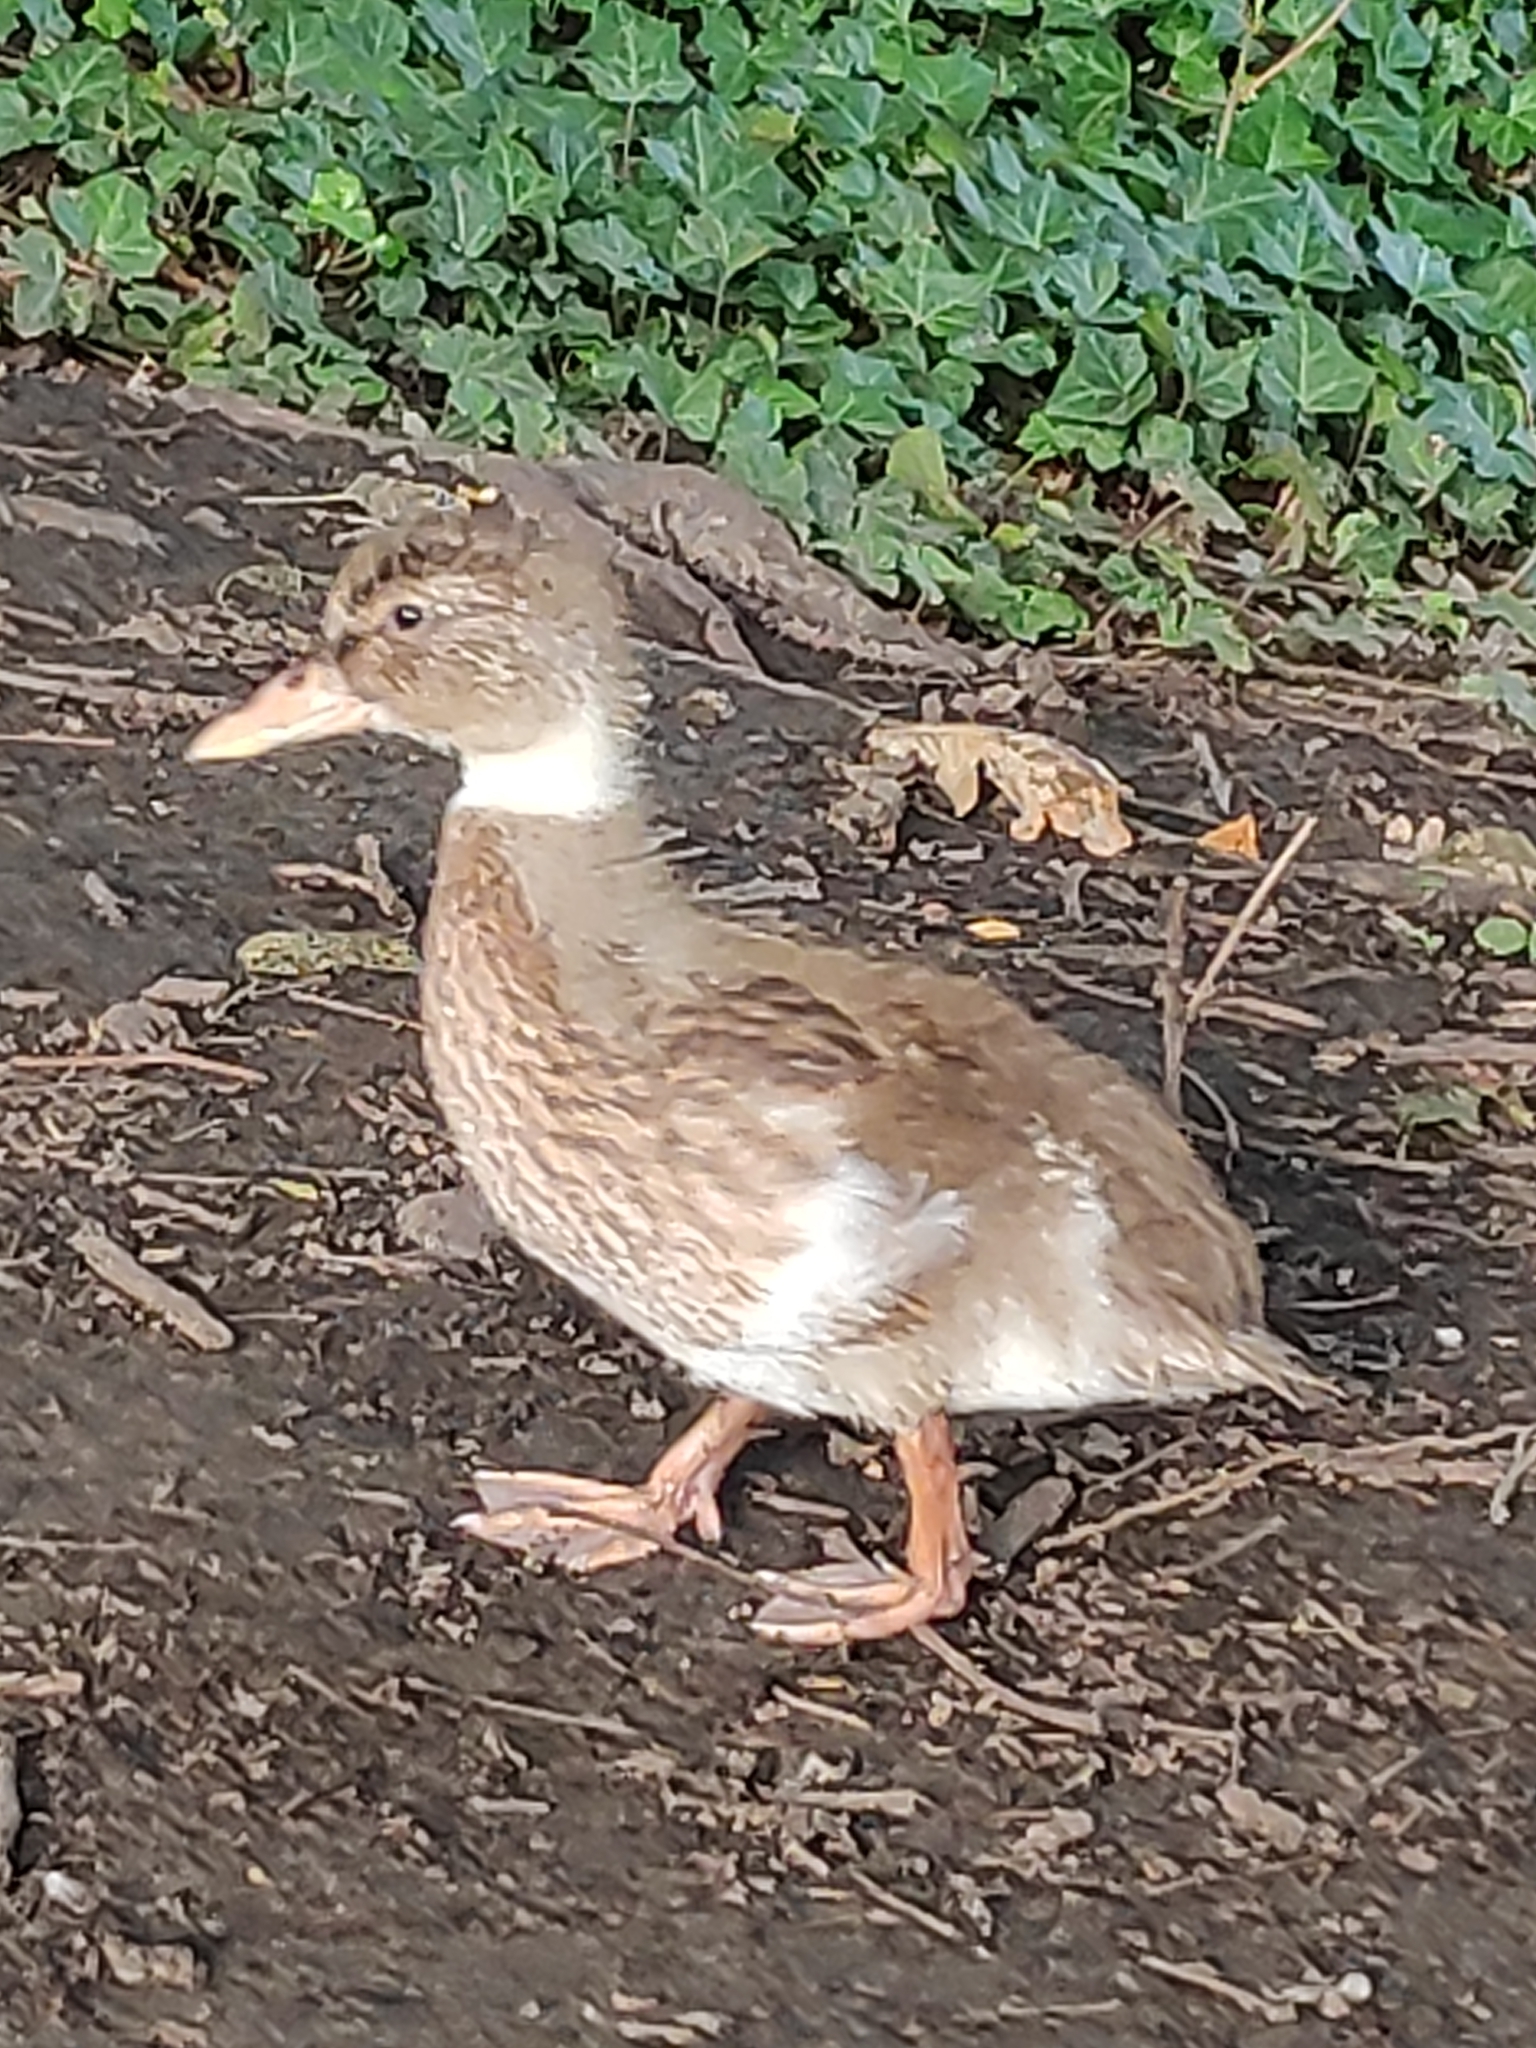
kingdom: Animalia
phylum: Chordata
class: Aves
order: Anseriformes
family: Anatidae
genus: Anas
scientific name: Anas platyrhynchos
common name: Mallard
